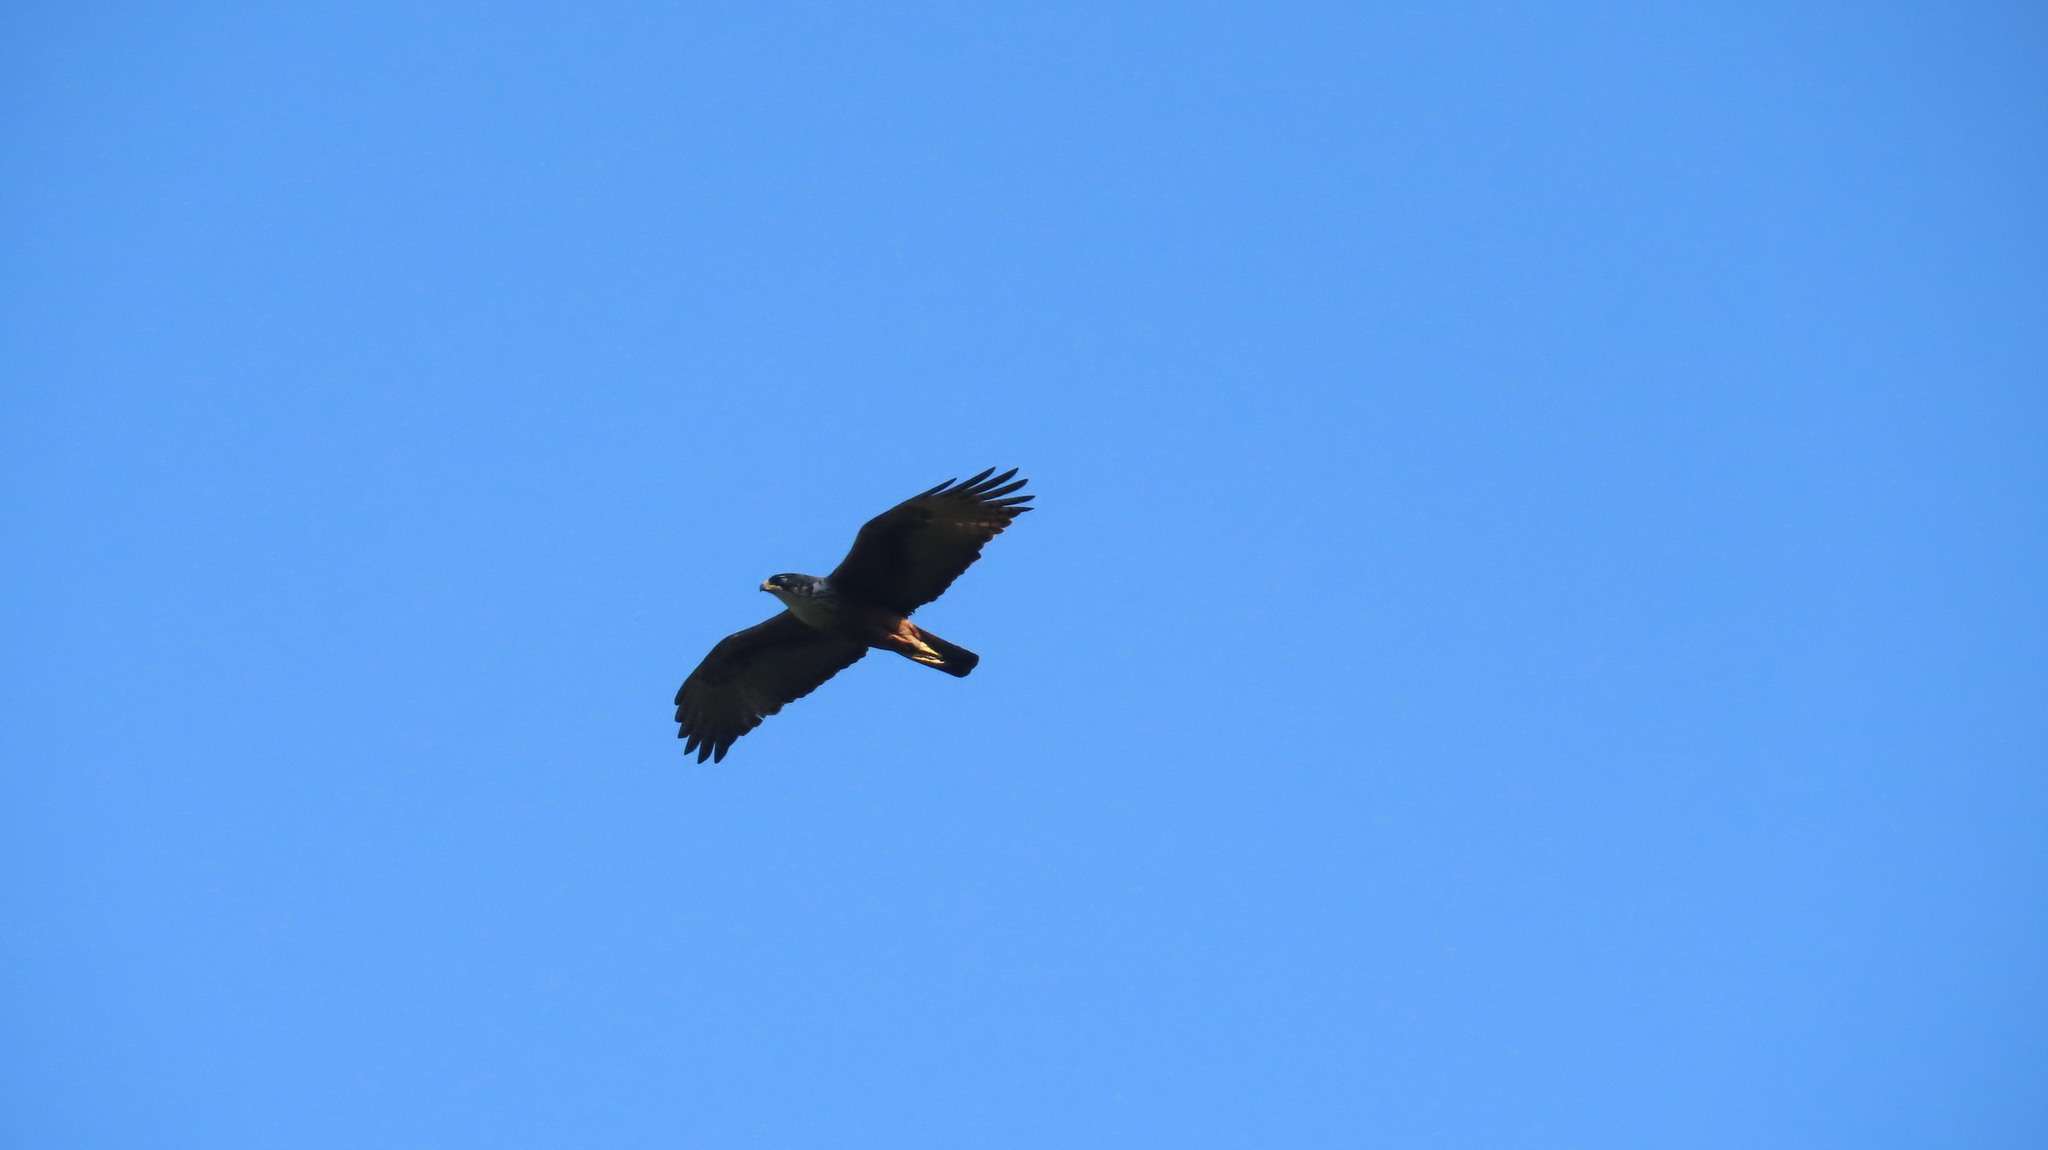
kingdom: Animalia
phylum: Chordata
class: Aves
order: Accipitriformes
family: Accipitridae
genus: Lophotriorchis
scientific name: Lophotriorchis kienerii
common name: Rufous-bellied eagle
